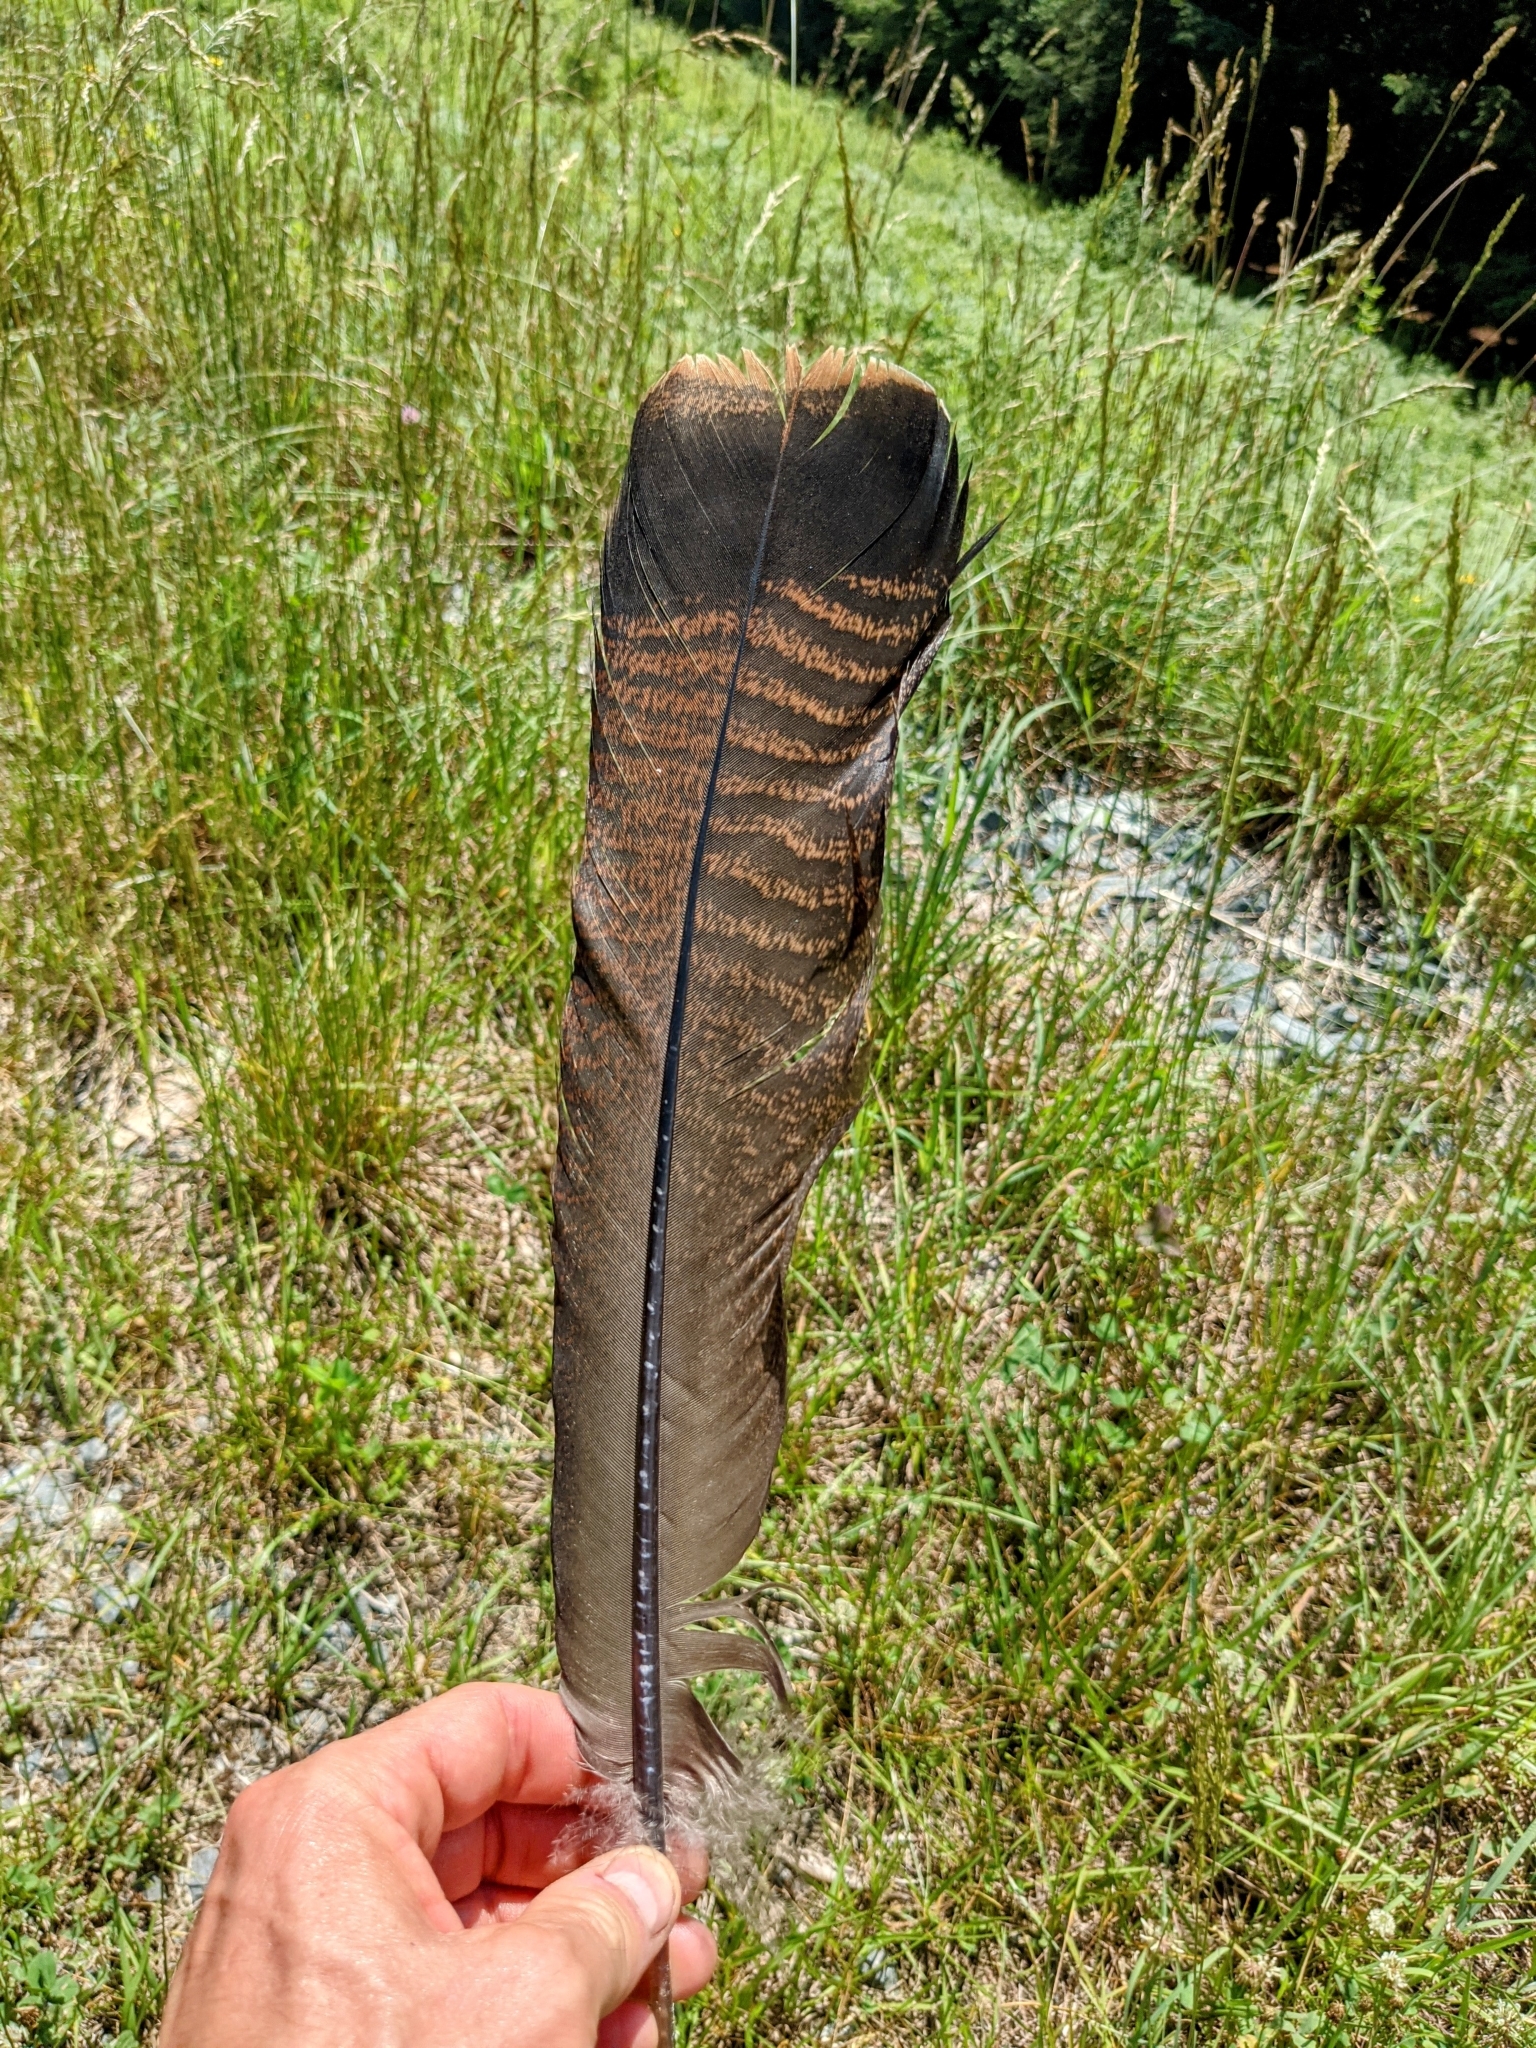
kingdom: Animalia
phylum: Chordata
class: Aves
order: Galliformes
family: Phasianidae
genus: Meleagris
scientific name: Meleagris gallopavo
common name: Wild turkey
